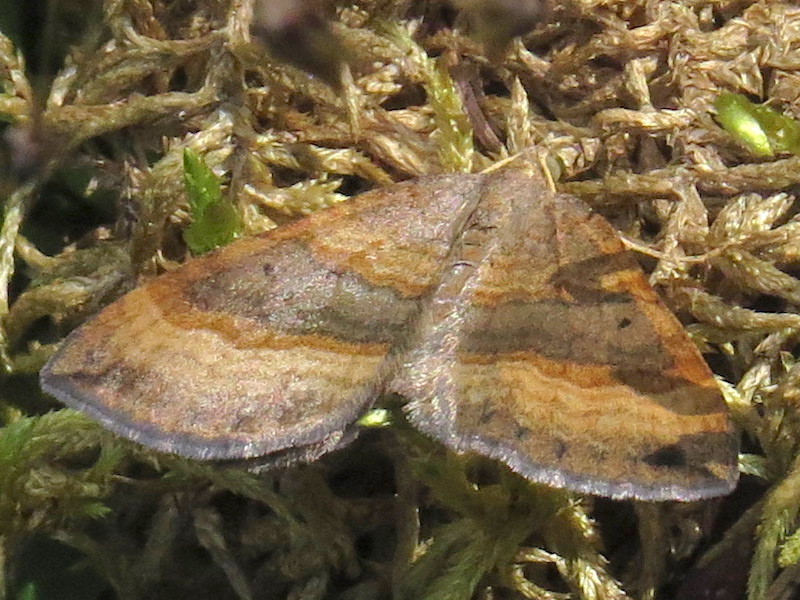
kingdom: Animalia
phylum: Arthropoda
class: Insecta
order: Lepidoptera
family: Geometridae
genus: Scotopteryx
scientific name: Scotopteryx chenopodiata
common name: Shaded broad-bar
